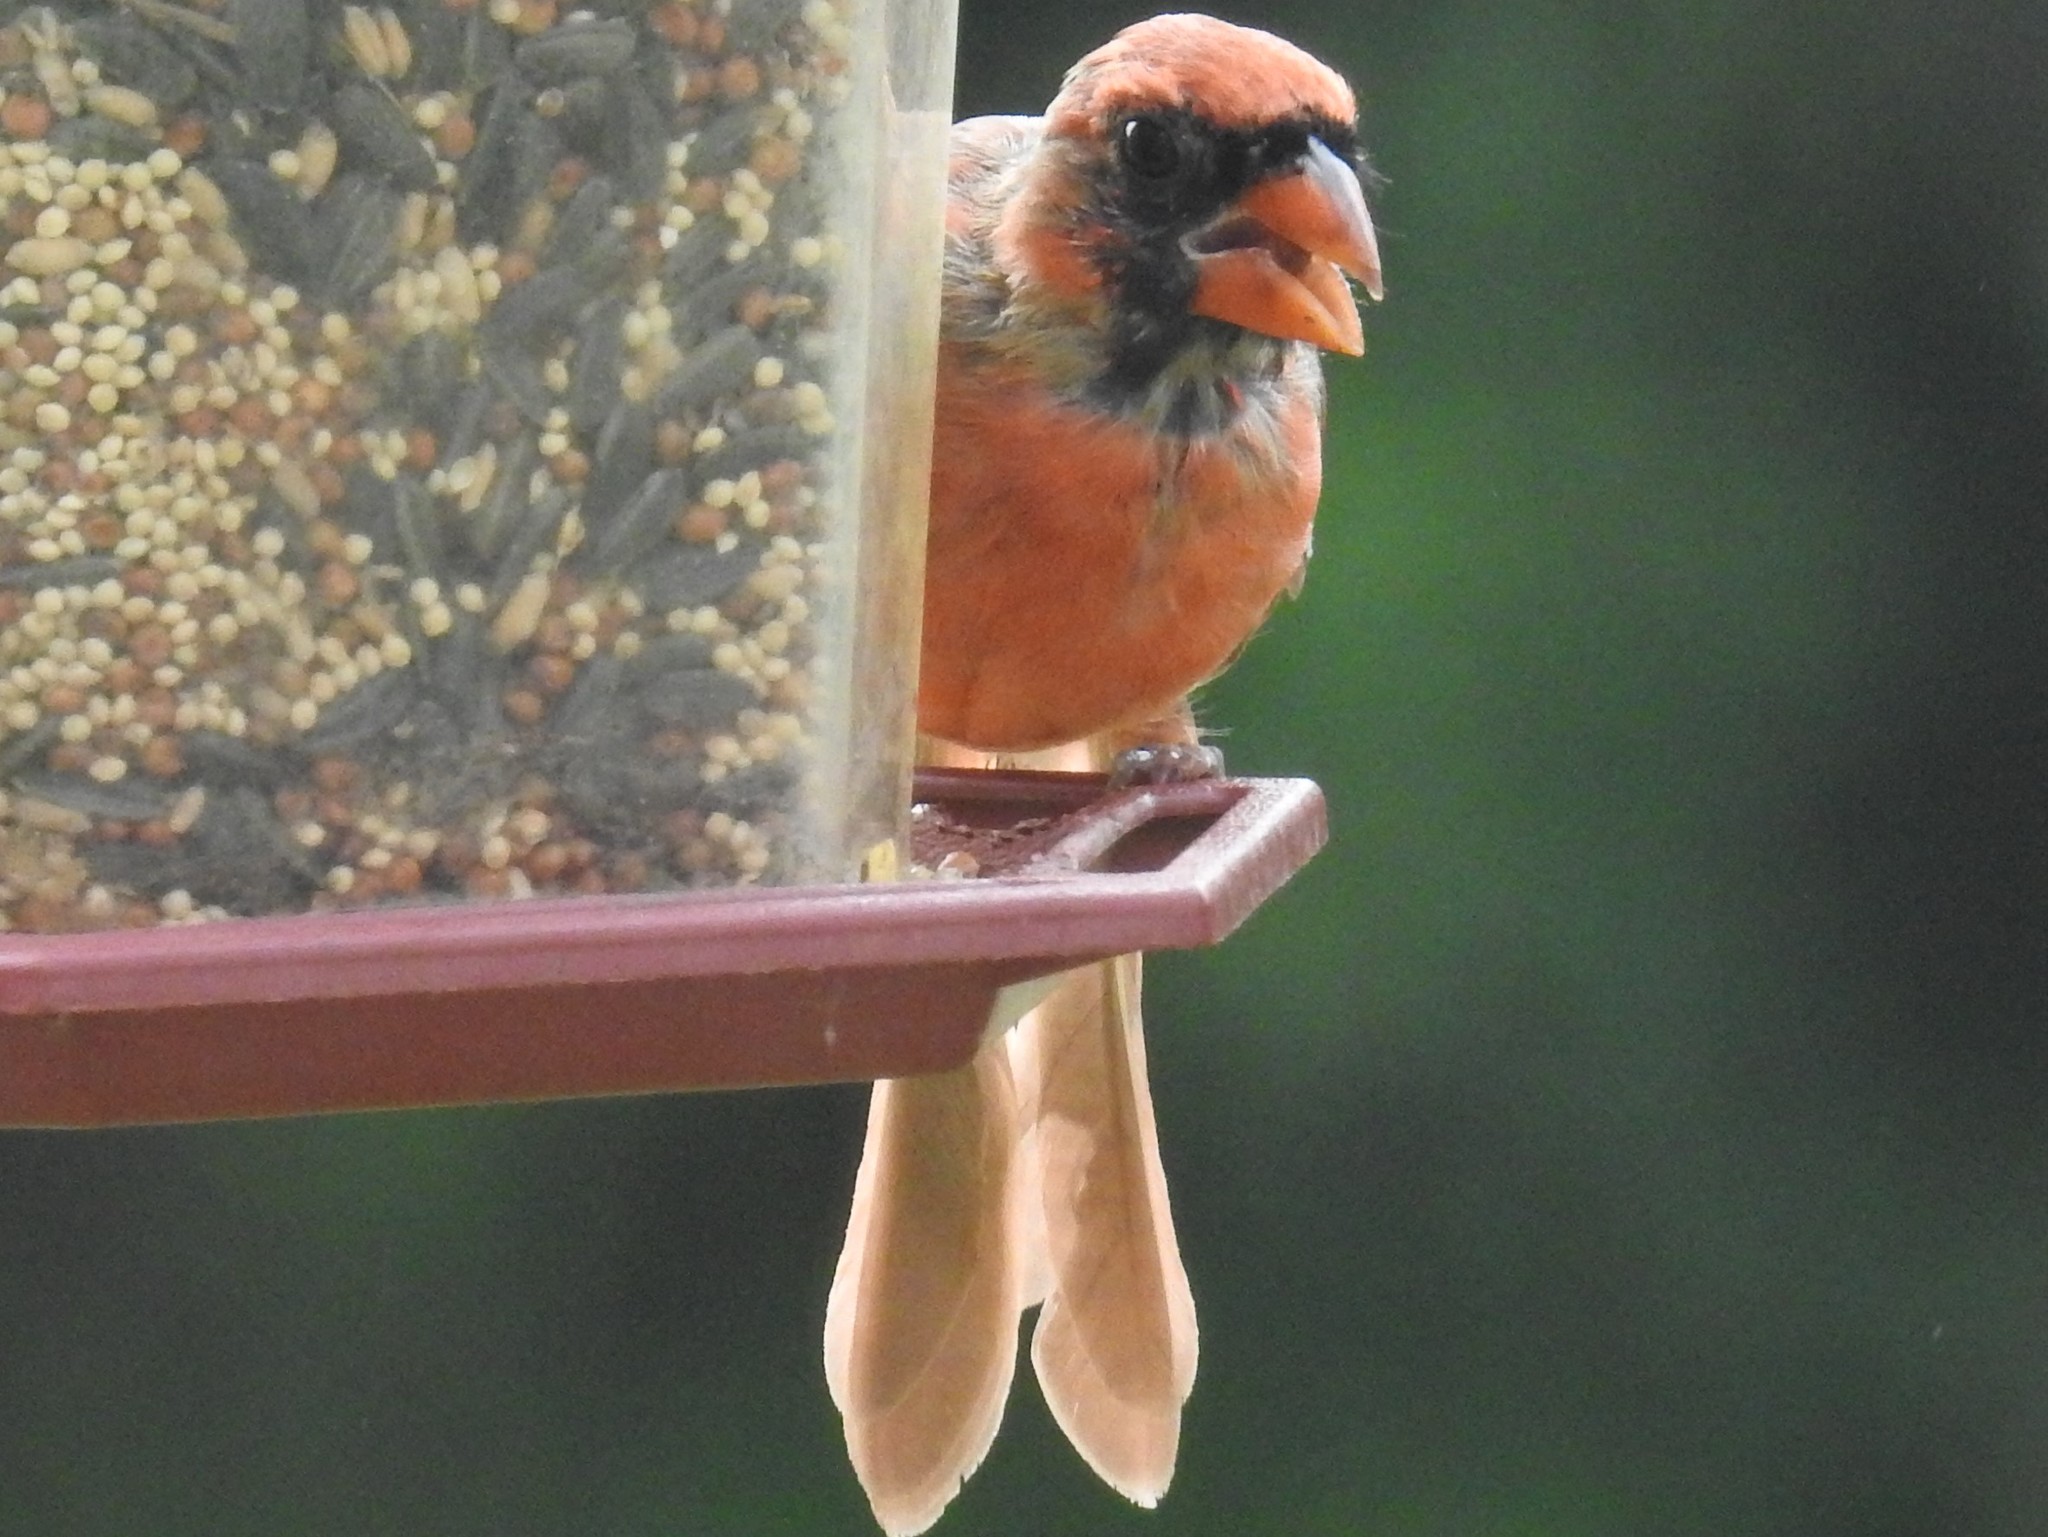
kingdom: Animalia
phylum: Chordata
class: Aves
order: Passeriformes
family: Cardinalidae
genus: Cardinalis
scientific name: Cardinalis cardinalis
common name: Northern cardinal
